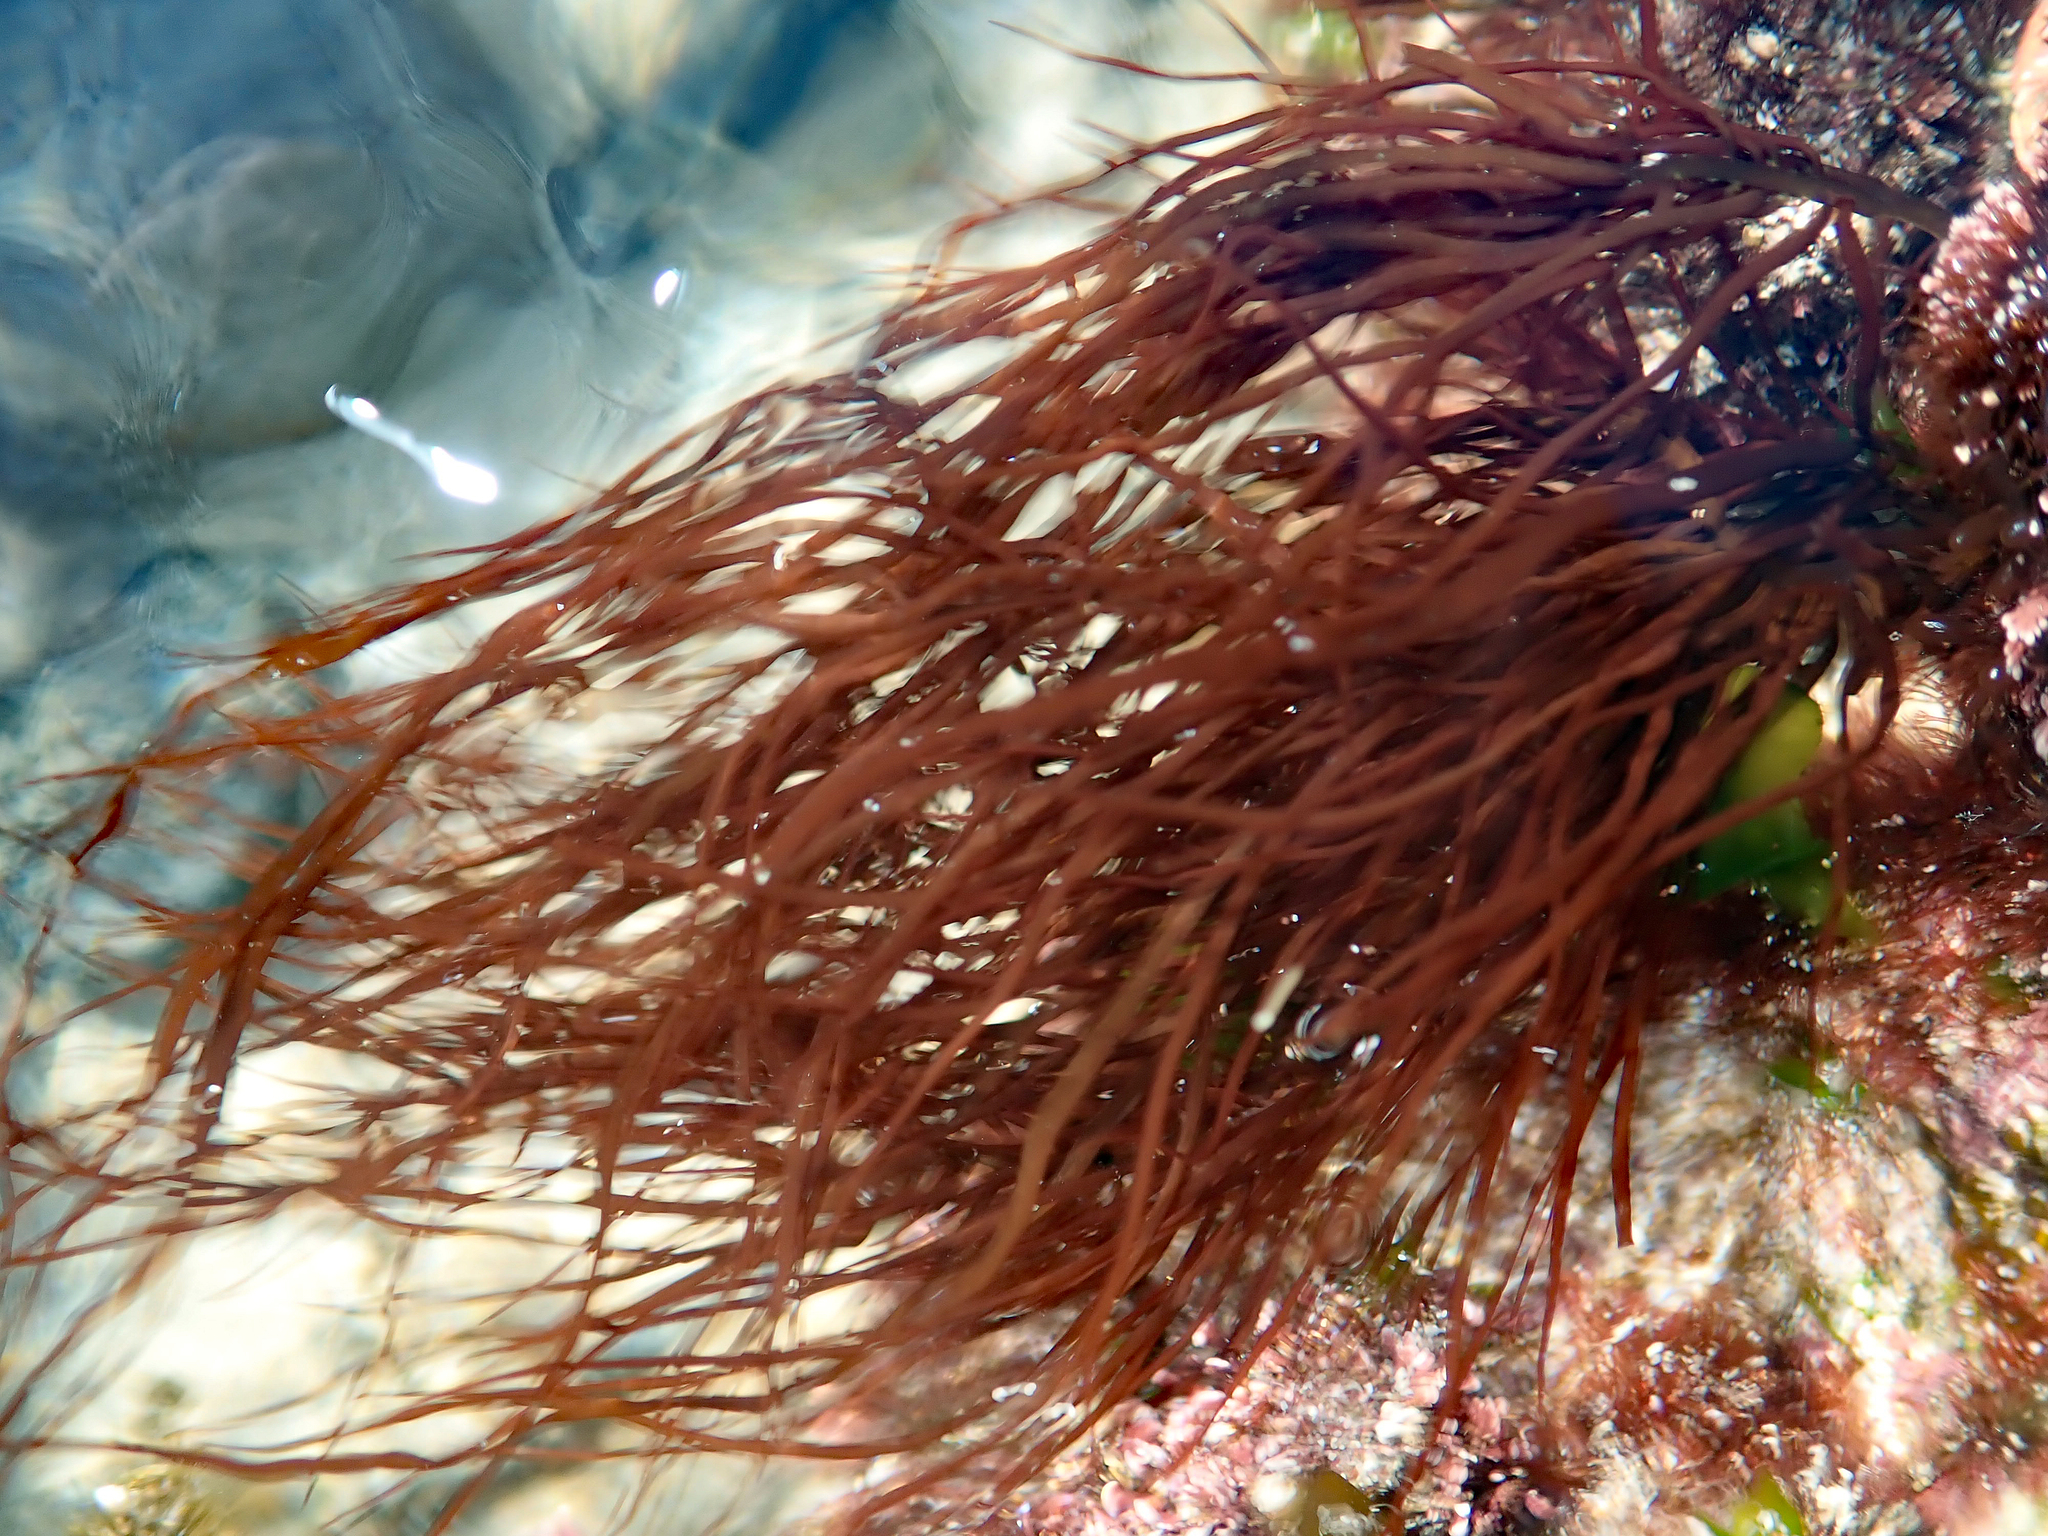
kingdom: Plantae
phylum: Rhodophyta
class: Florideophyceae
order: Halymeniales
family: Halymeniaceae
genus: Grateloupia
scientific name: Grateloupia prolifera
